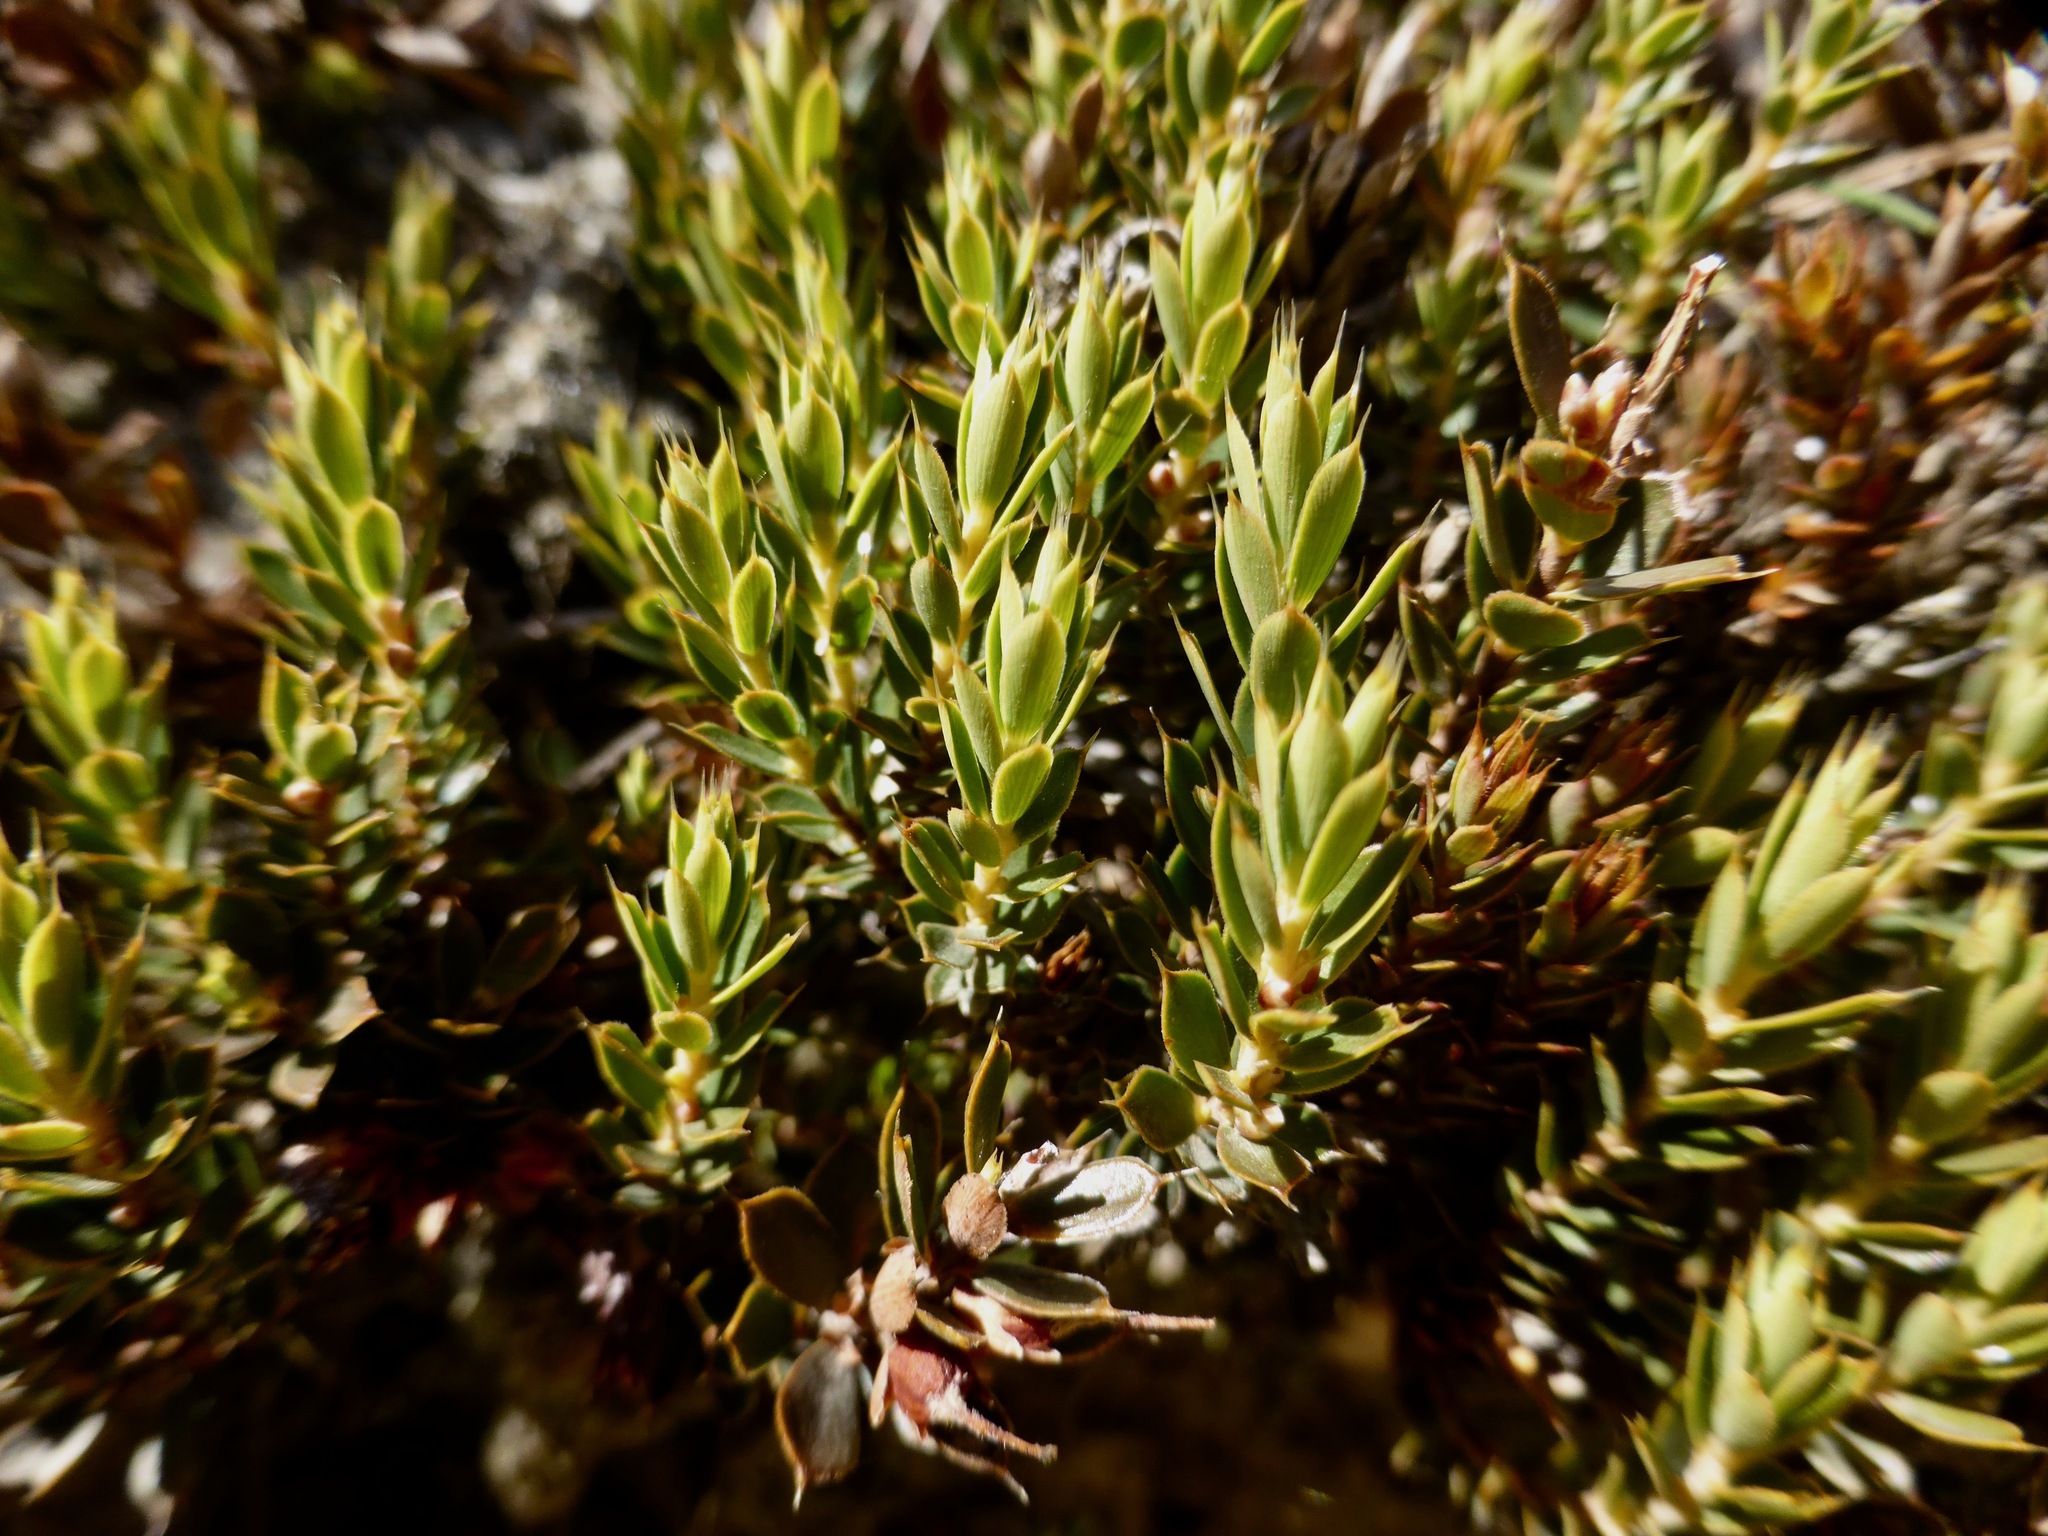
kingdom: Plantae
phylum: Tracheophyta
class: Magnoliopsida
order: Ericales
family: Ericaceae
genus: Styphelia
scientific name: Styphelia nesophila
